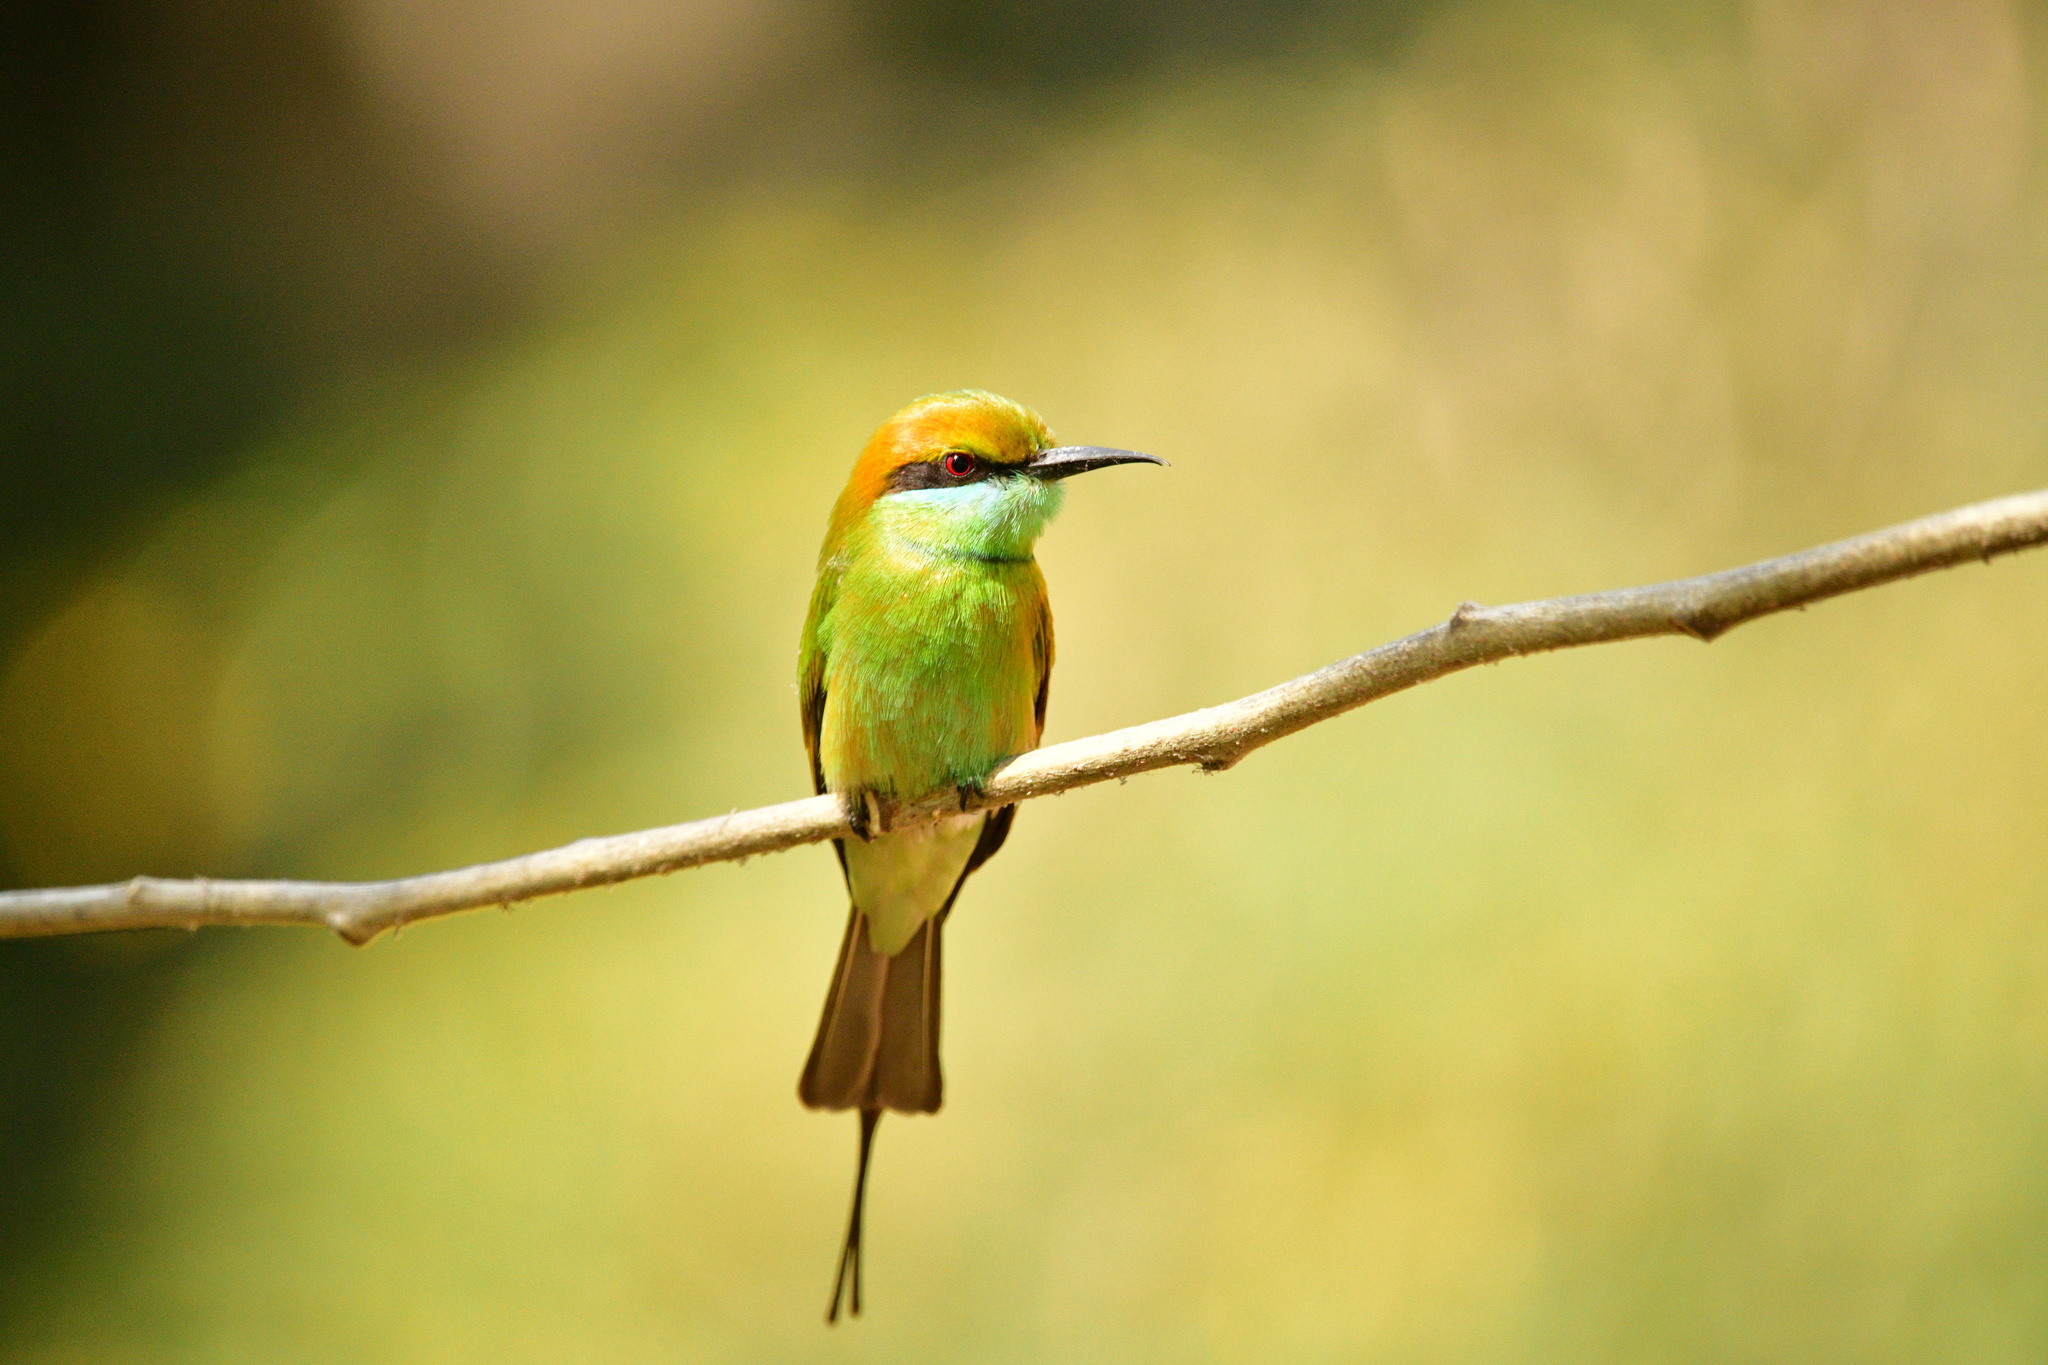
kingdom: Animalia
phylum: Chordata
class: Aves
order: Coraciiformes
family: Meropidae
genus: Merops
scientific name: Merops orientalis
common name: Green bee-eater
